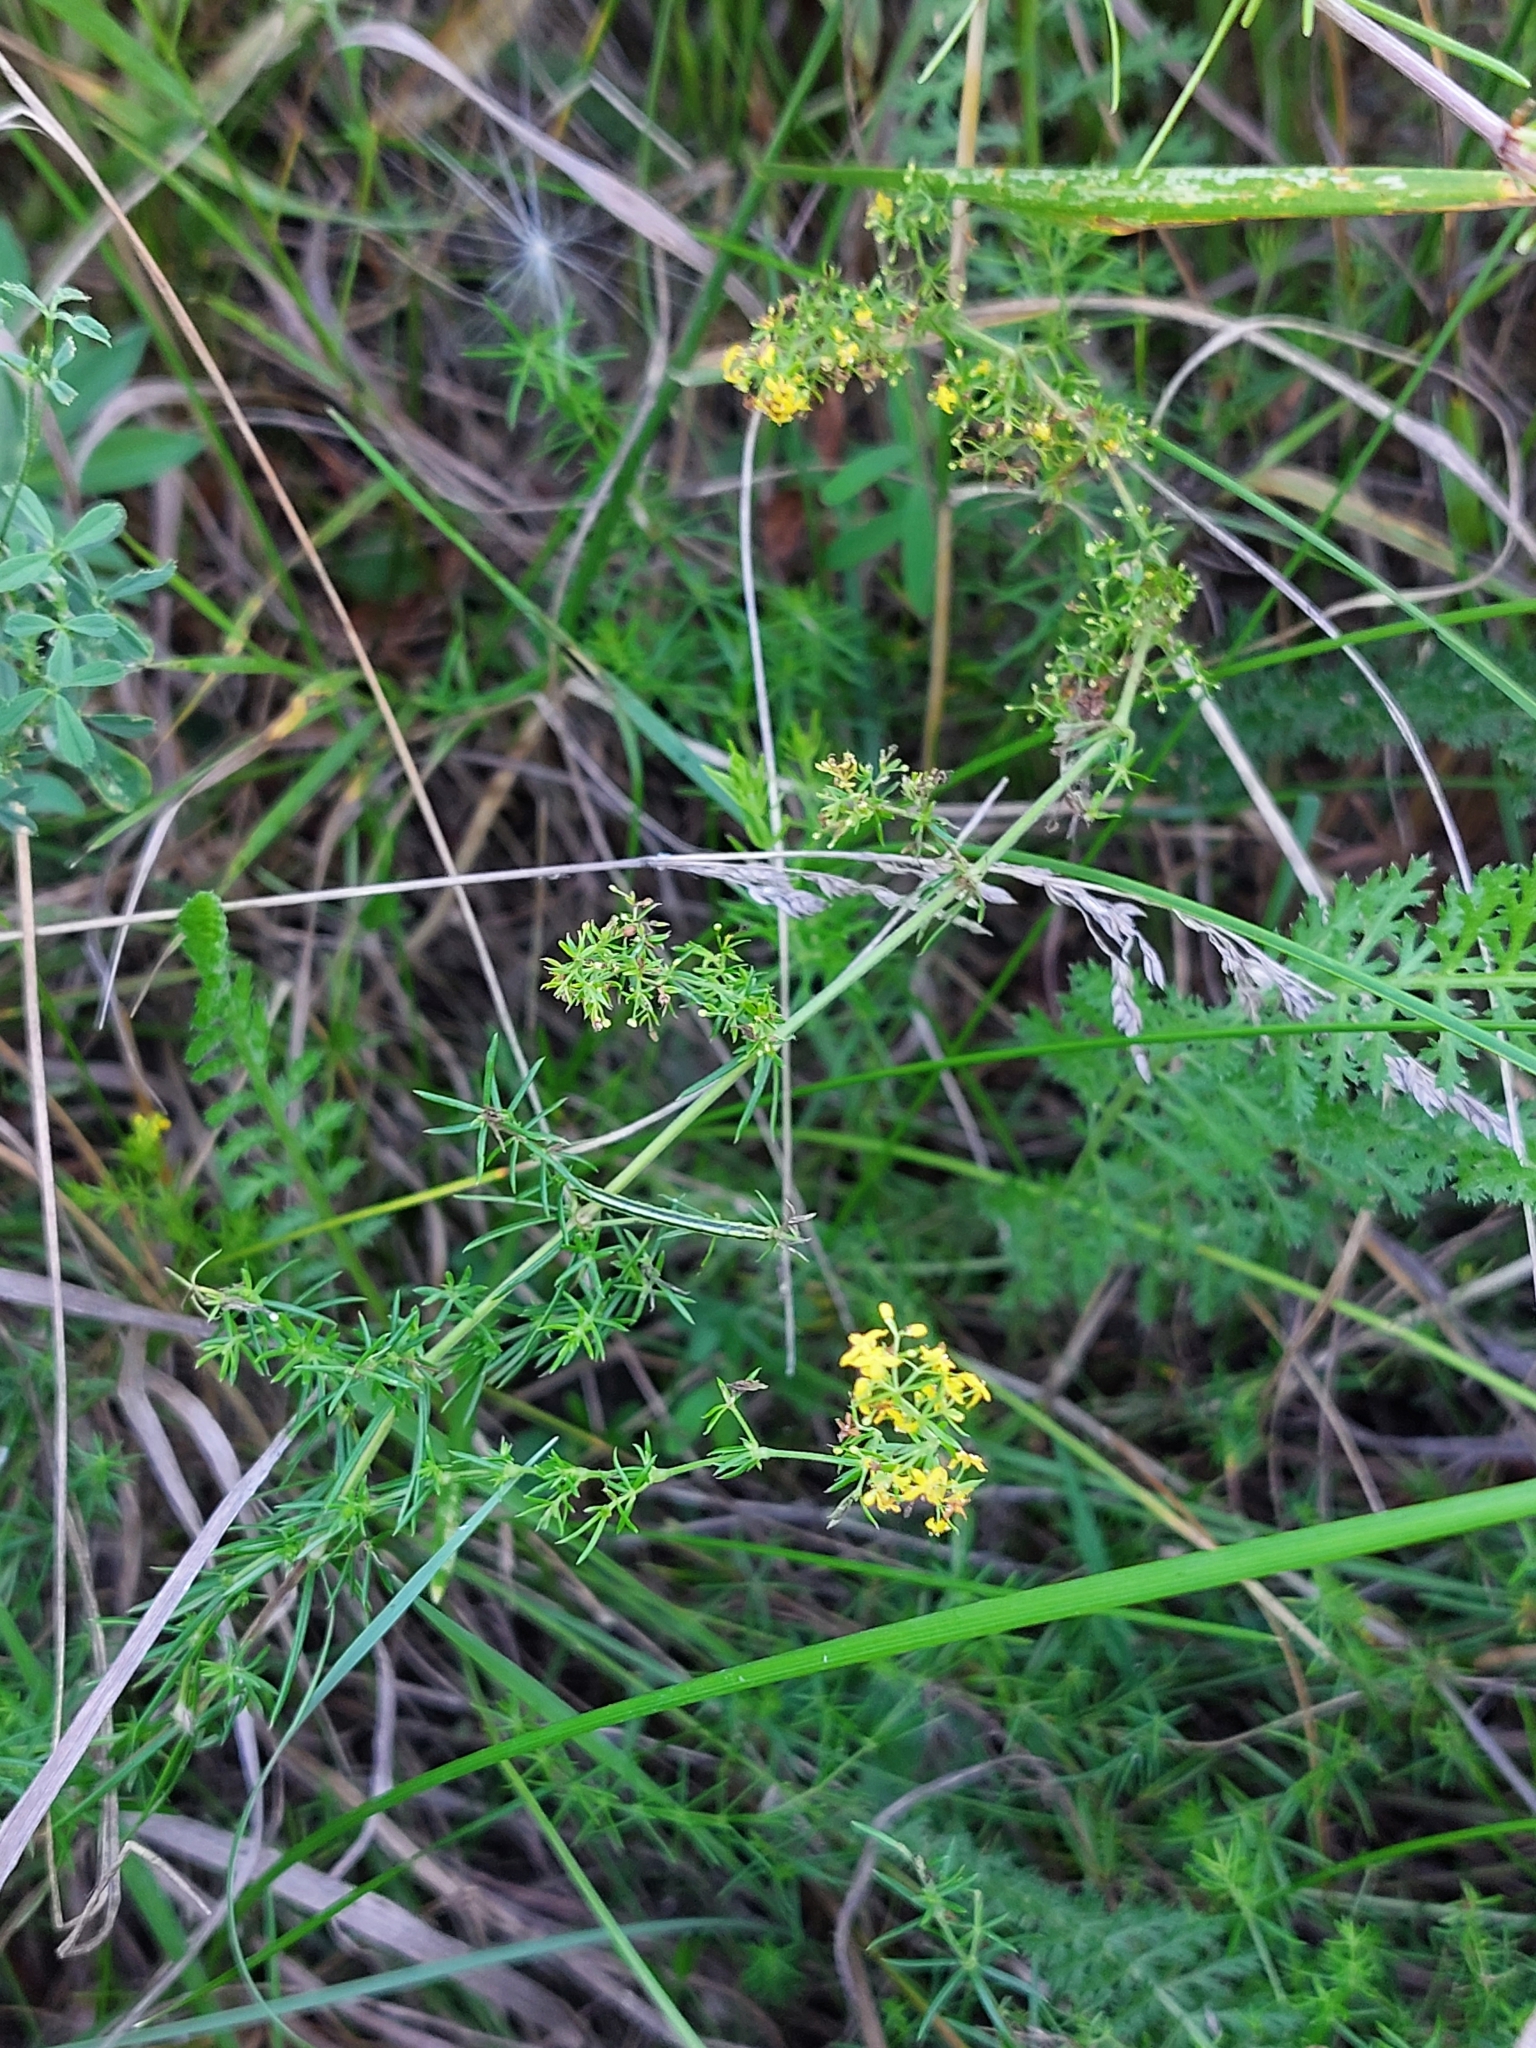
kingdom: Plantae
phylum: Tracheophyta
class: Magnoliopsida
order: Gentianales
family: Rubiaceae
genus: Galium
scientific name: Galium verum
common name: Lady's bedstraw
